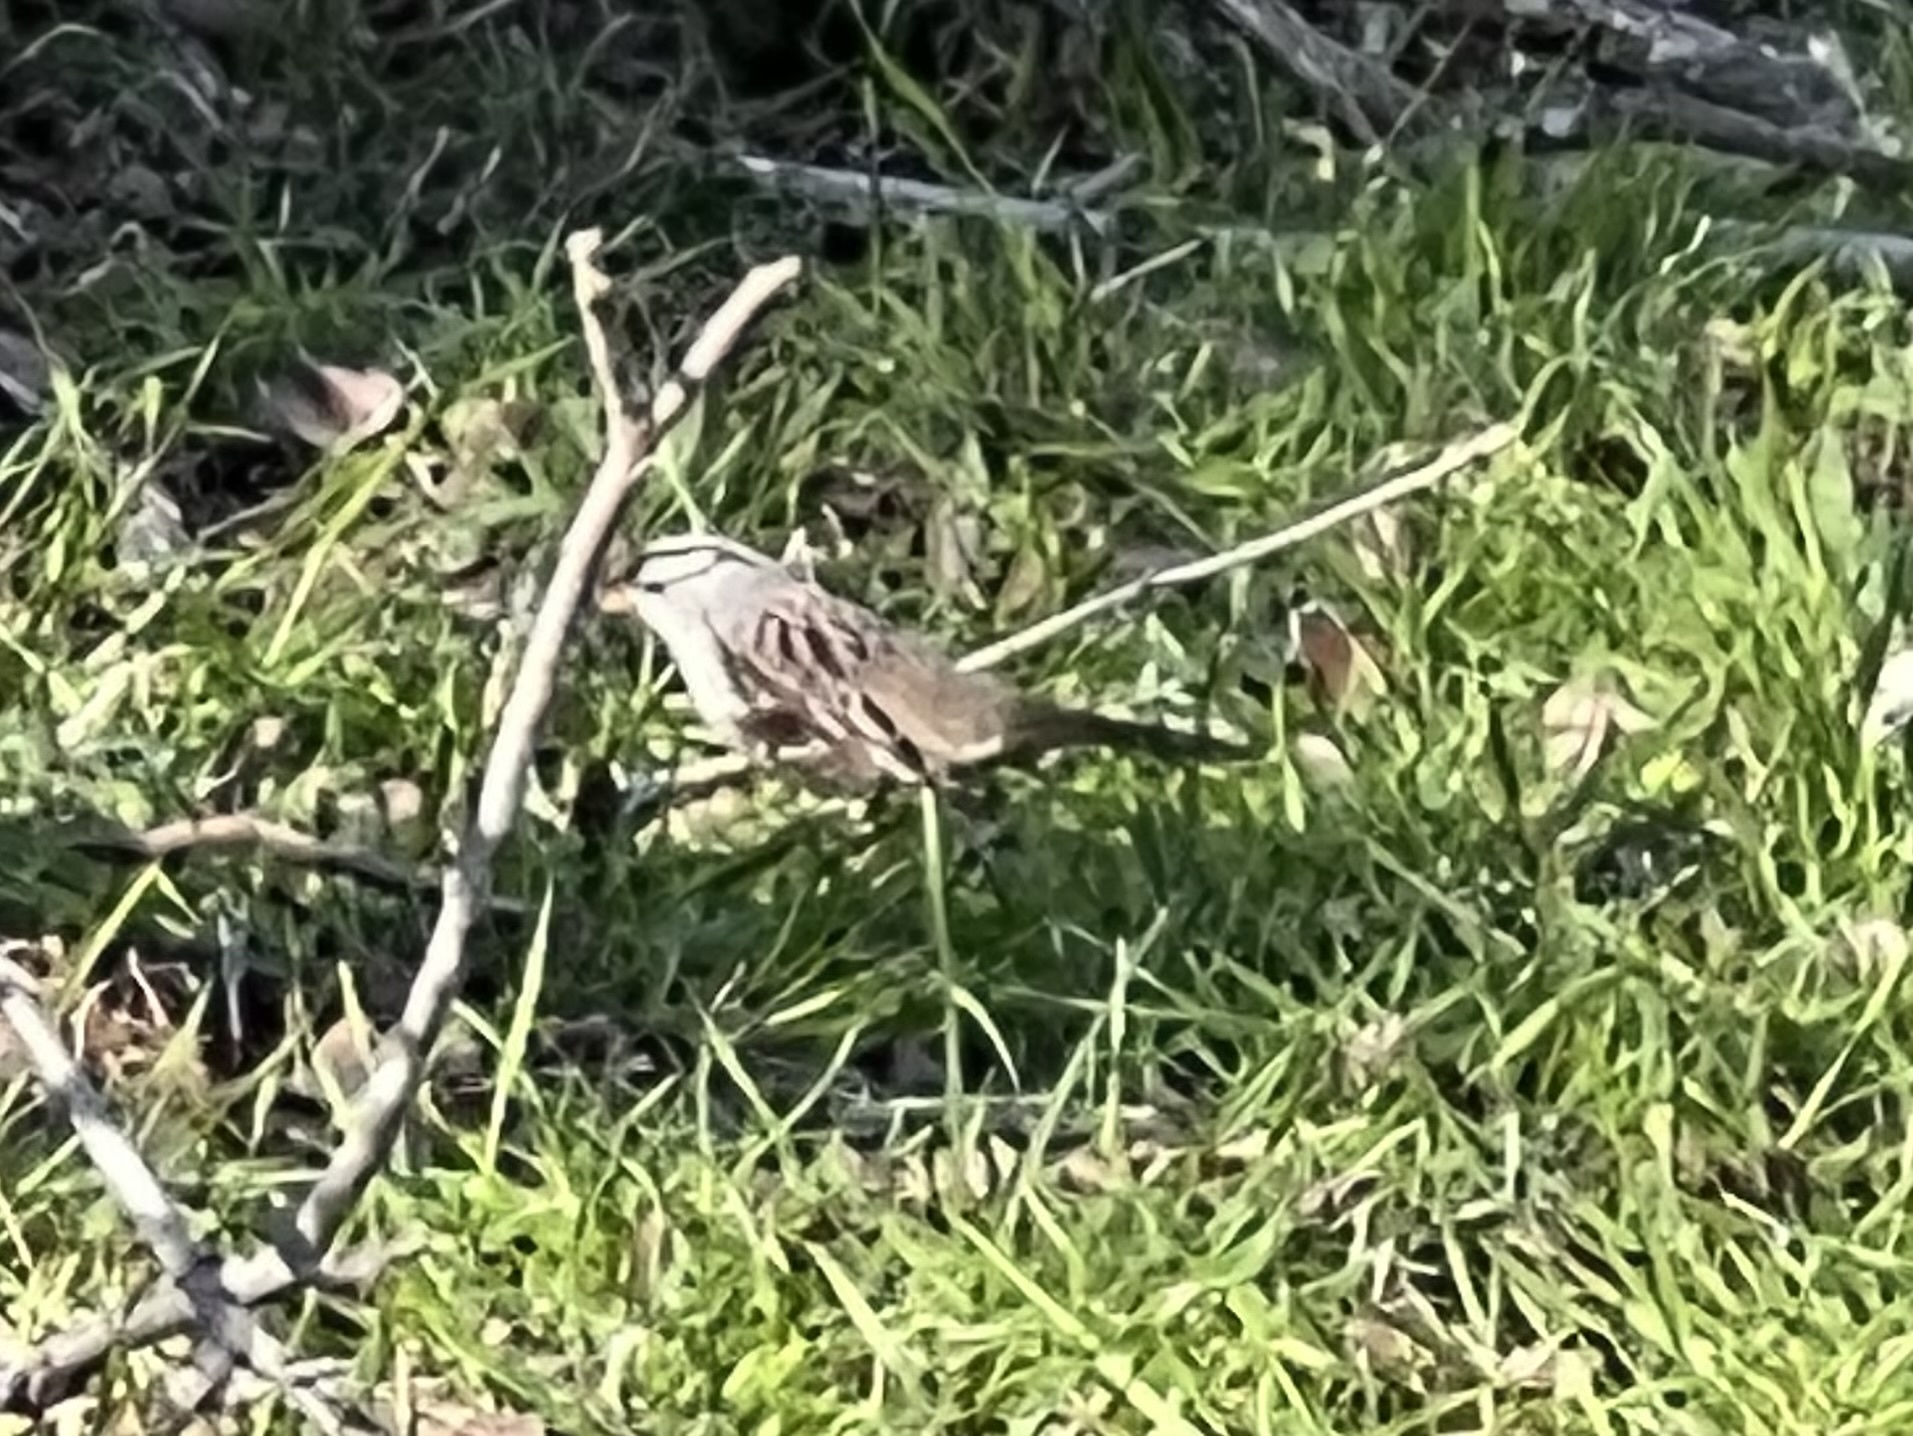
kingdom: Animalia
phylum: Chordata
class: Aves
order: Passeriformes
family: Passerellidae
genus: Zonotrichia
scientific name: Zonotrichia leucophrys
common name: White-crowned sparrow
